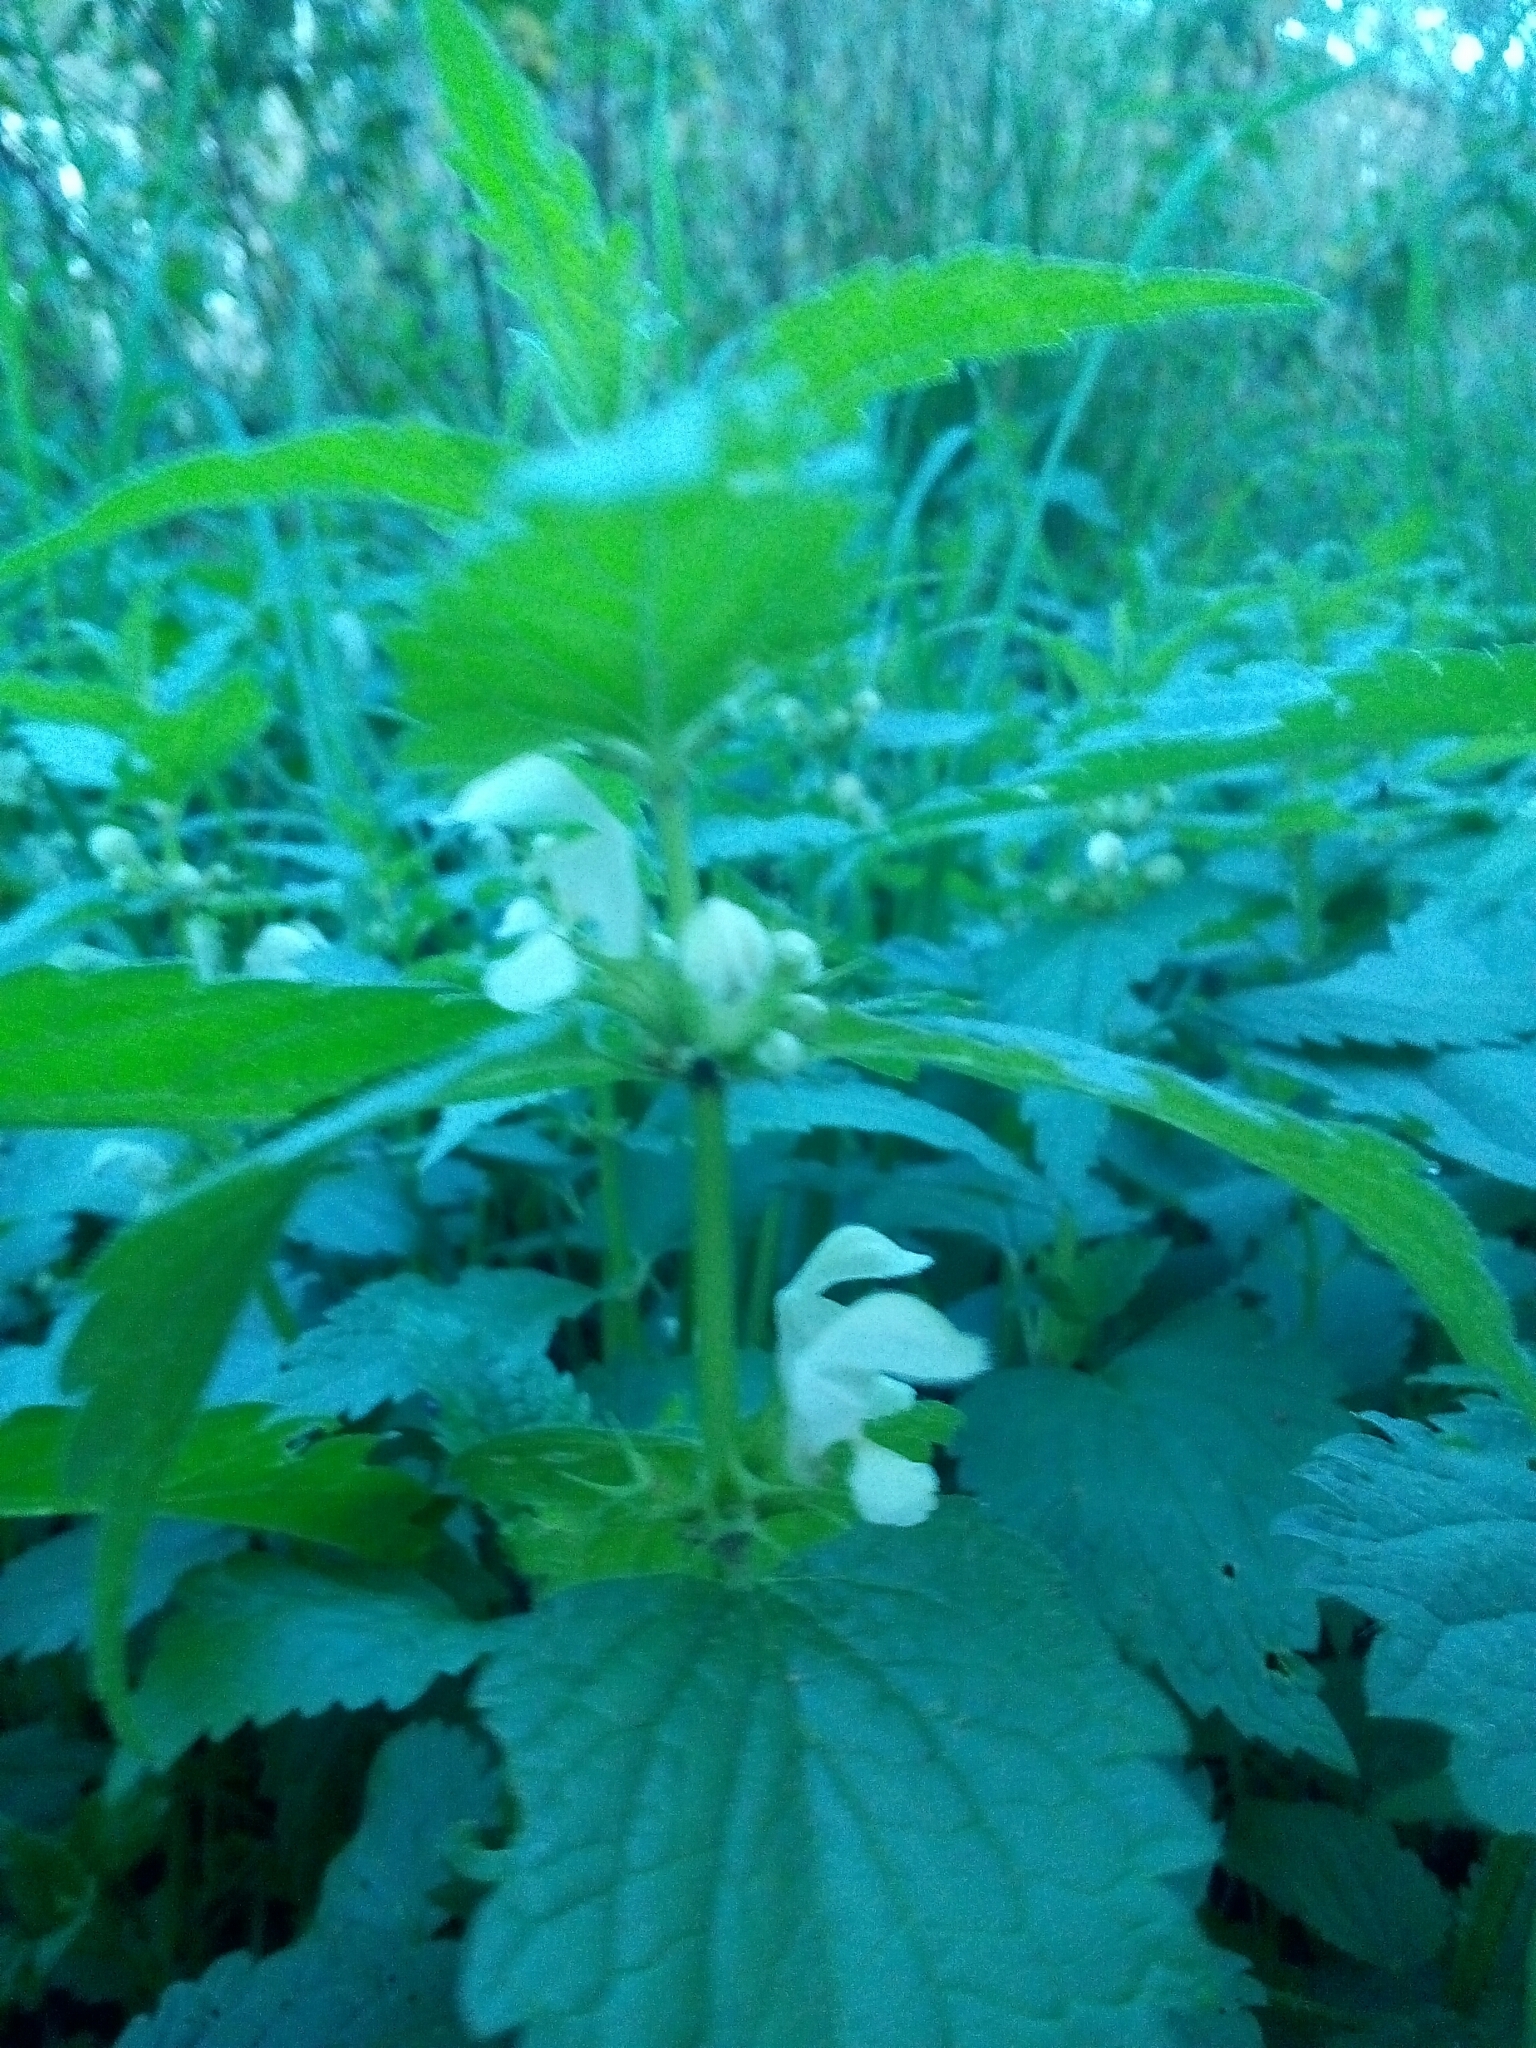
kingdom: Plantae
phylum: Tracheophyta
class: Magnoliopsida
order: Lamiales
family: Lamiaceae
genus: Lamium
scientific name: Lamium album
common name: White dead-nettle
